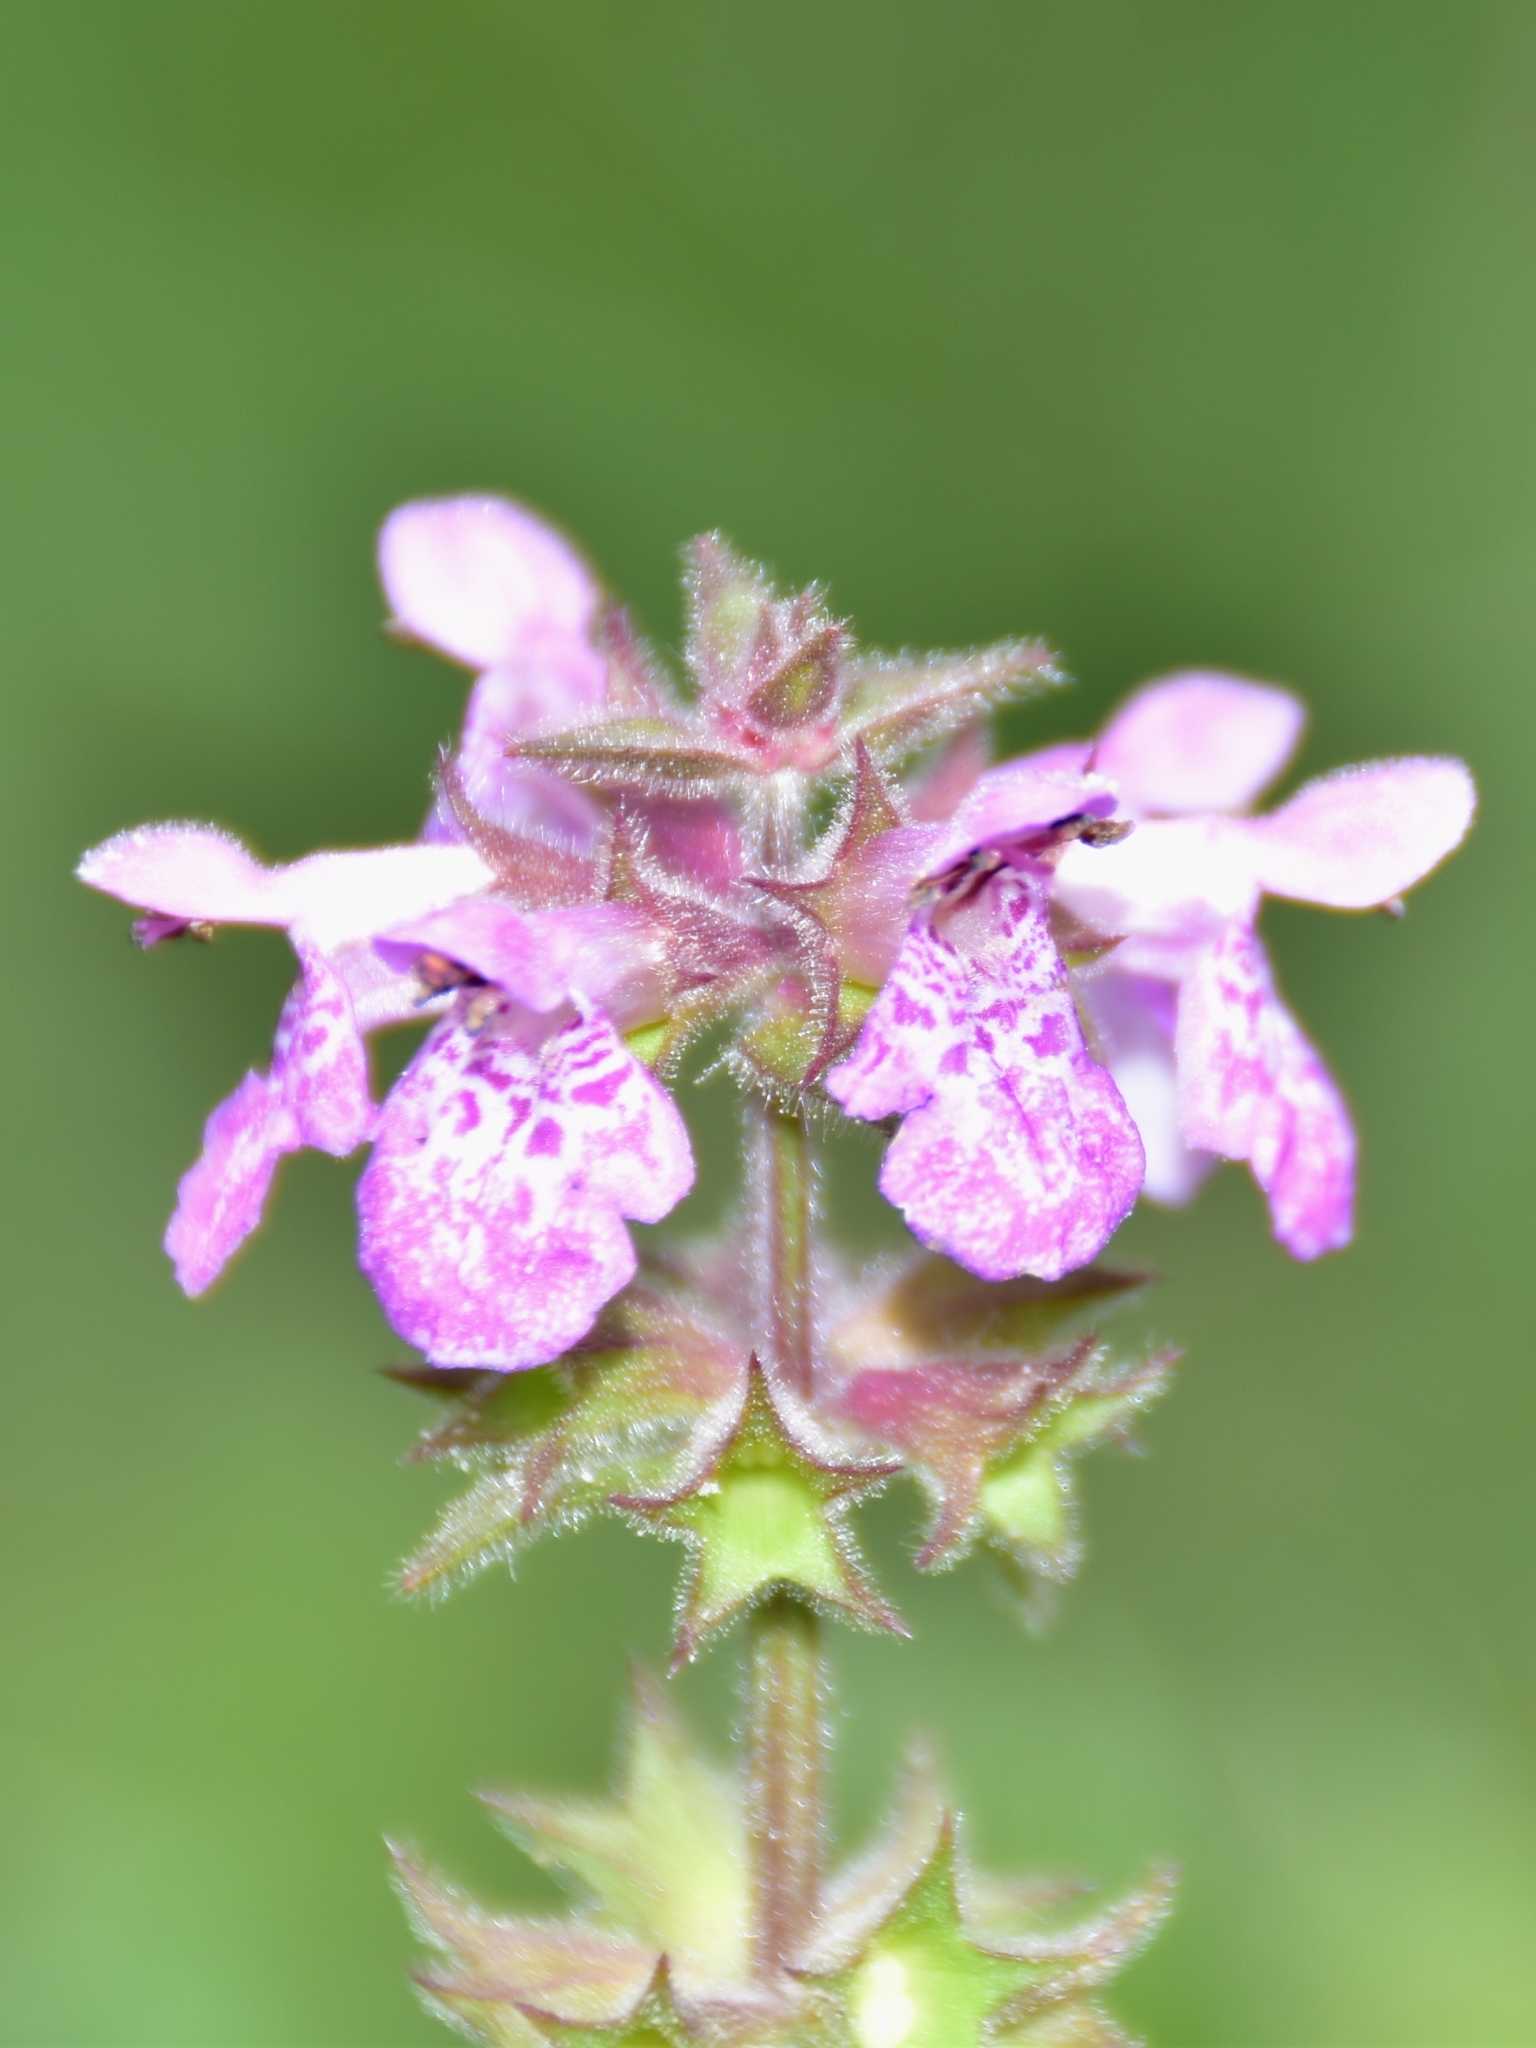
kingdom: Plantae
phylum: Tracheophyta
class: Magnoliopsida
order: Lamiales
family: Lamiaceae
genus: Stachys
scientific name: Stachys palustris
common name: Marsh woundwort
